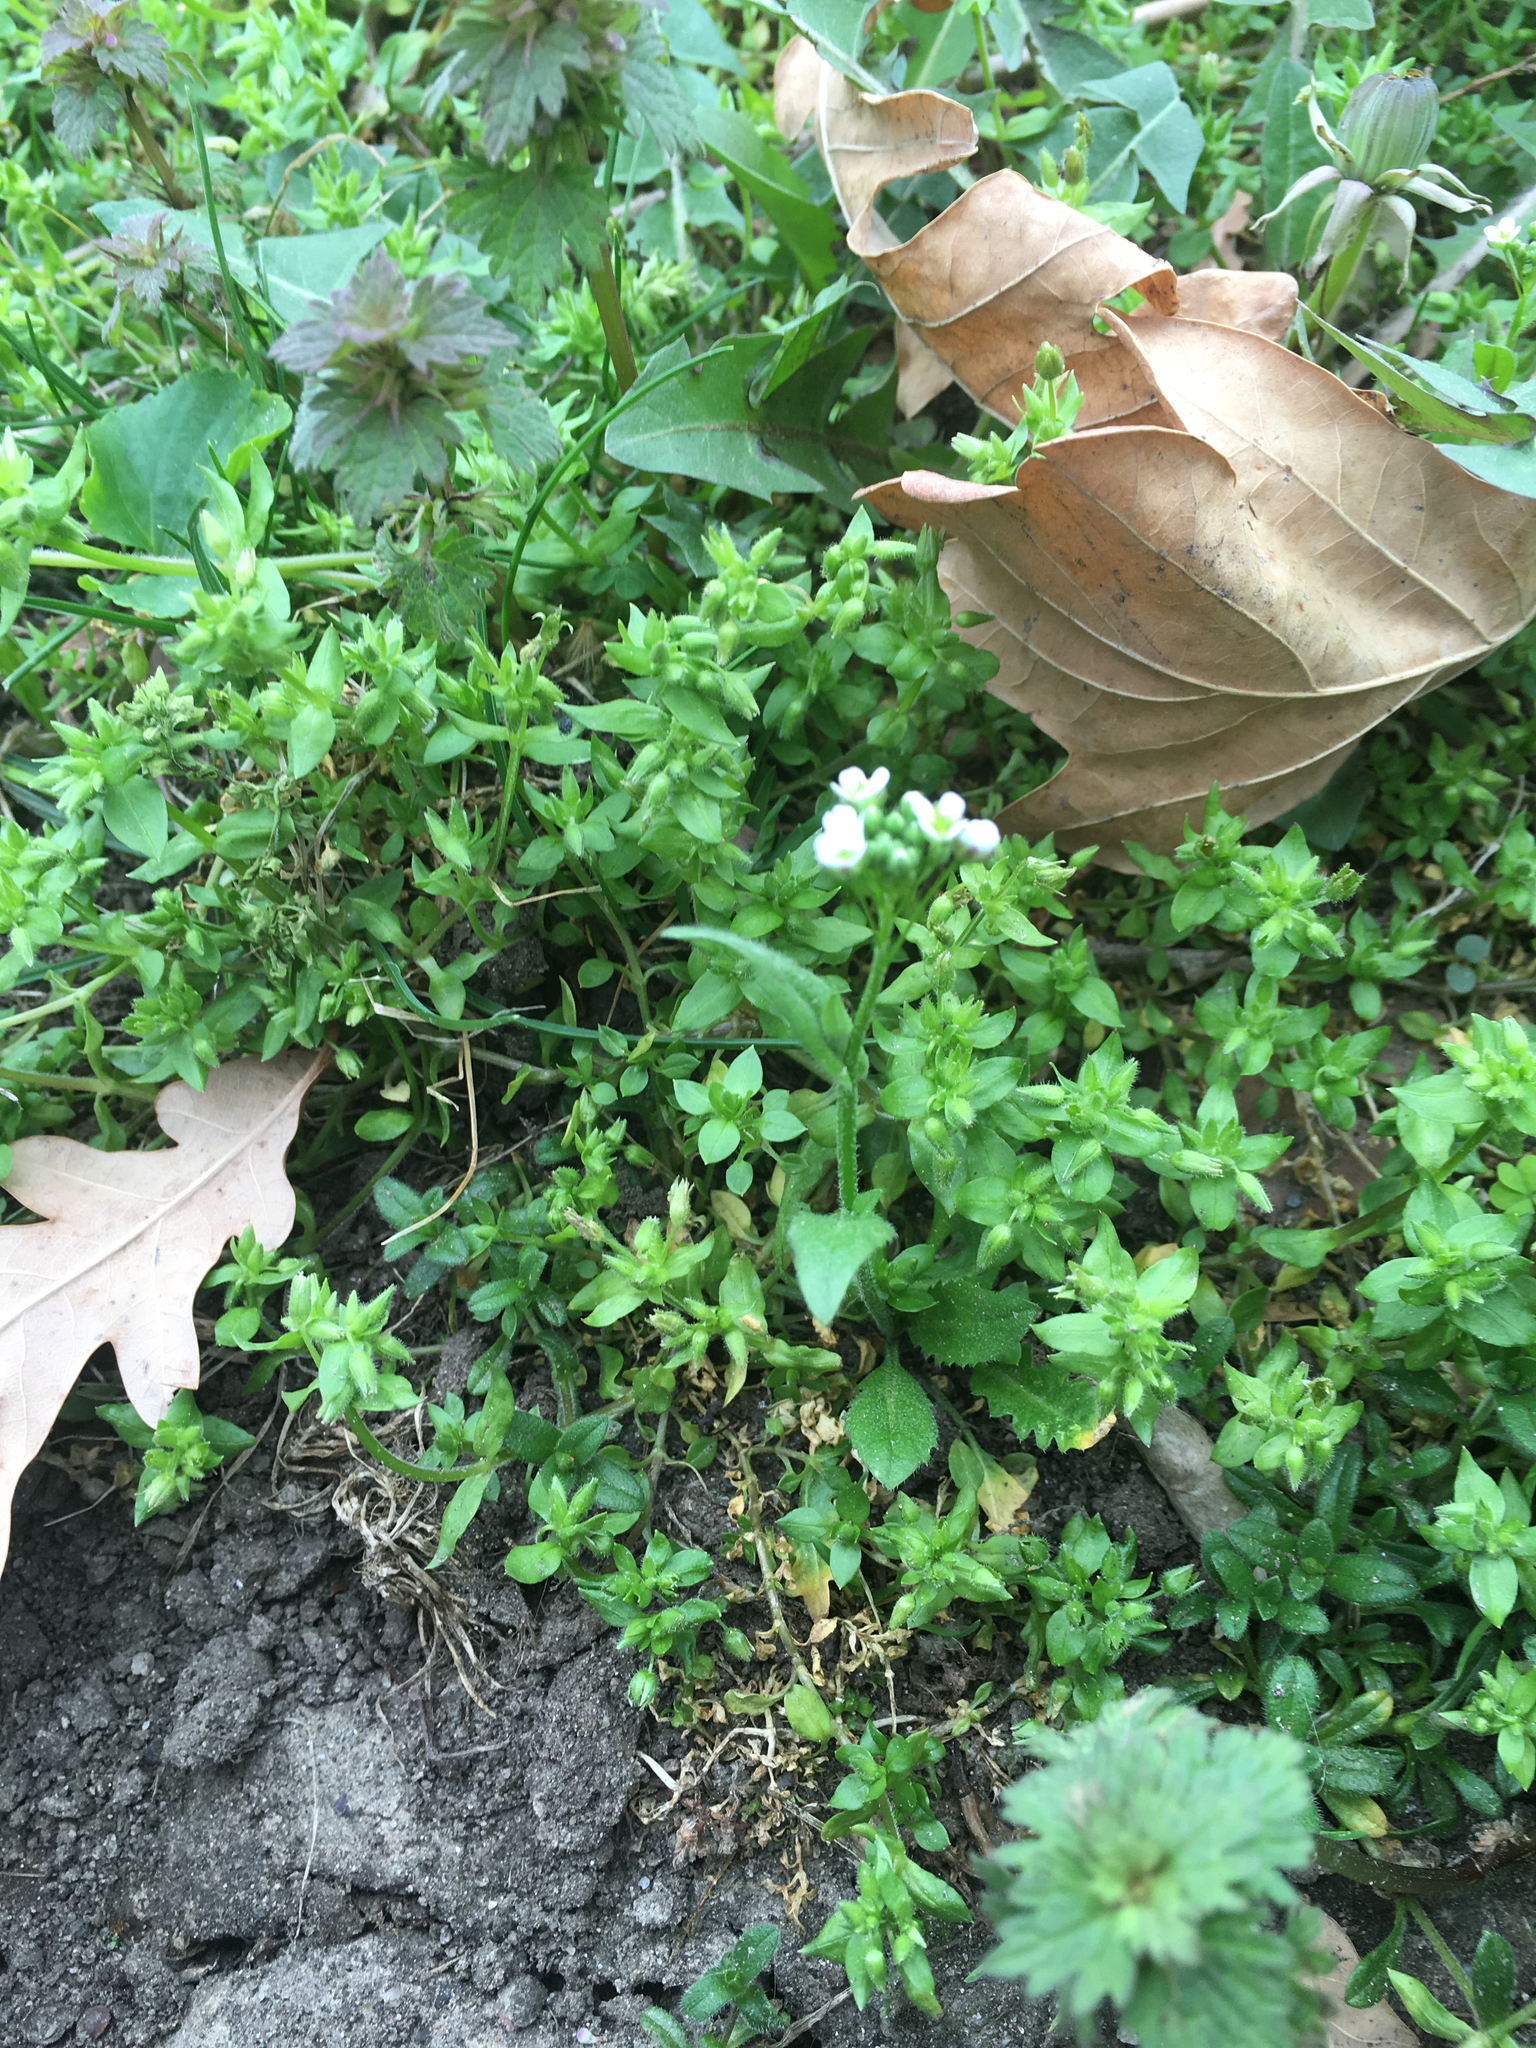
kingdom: Plantae
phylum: Tracheophyta
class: Magnoliopsida
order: Brassicales
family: Brassicaceae
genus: Capsella
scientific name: Capsella bursa-pastoris
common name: Shepherd's purse
